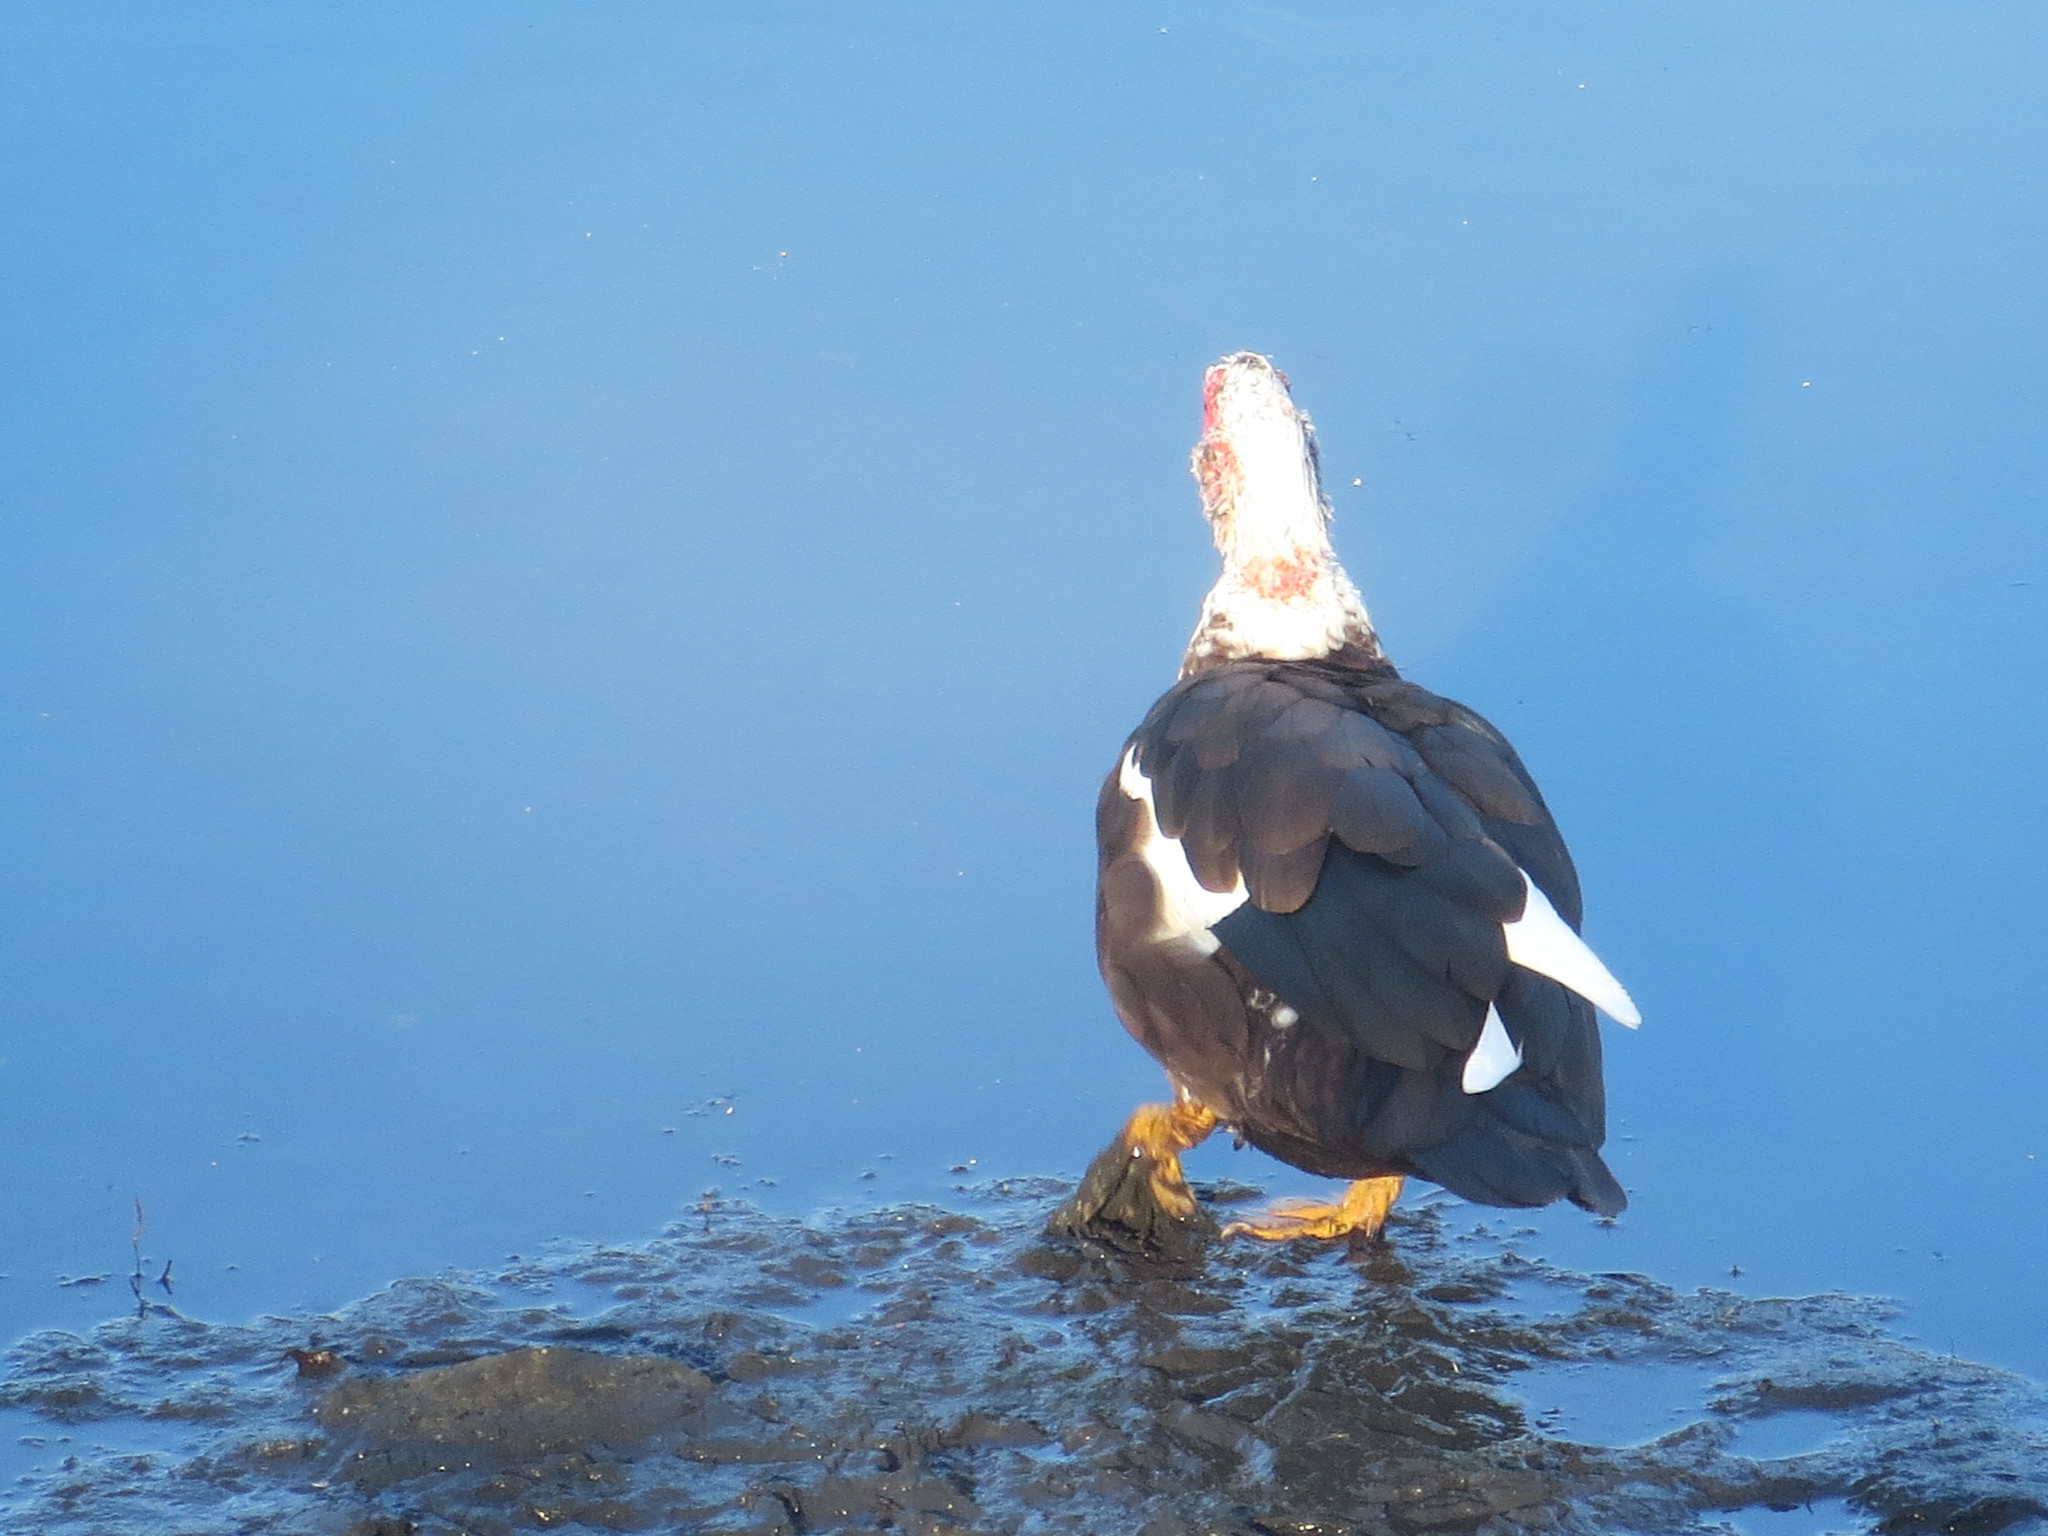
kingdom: Animalia
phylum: Chordata
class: Aves
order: Anseriformes
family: Anatidae
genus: Cairina
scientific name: Cairina moschata
